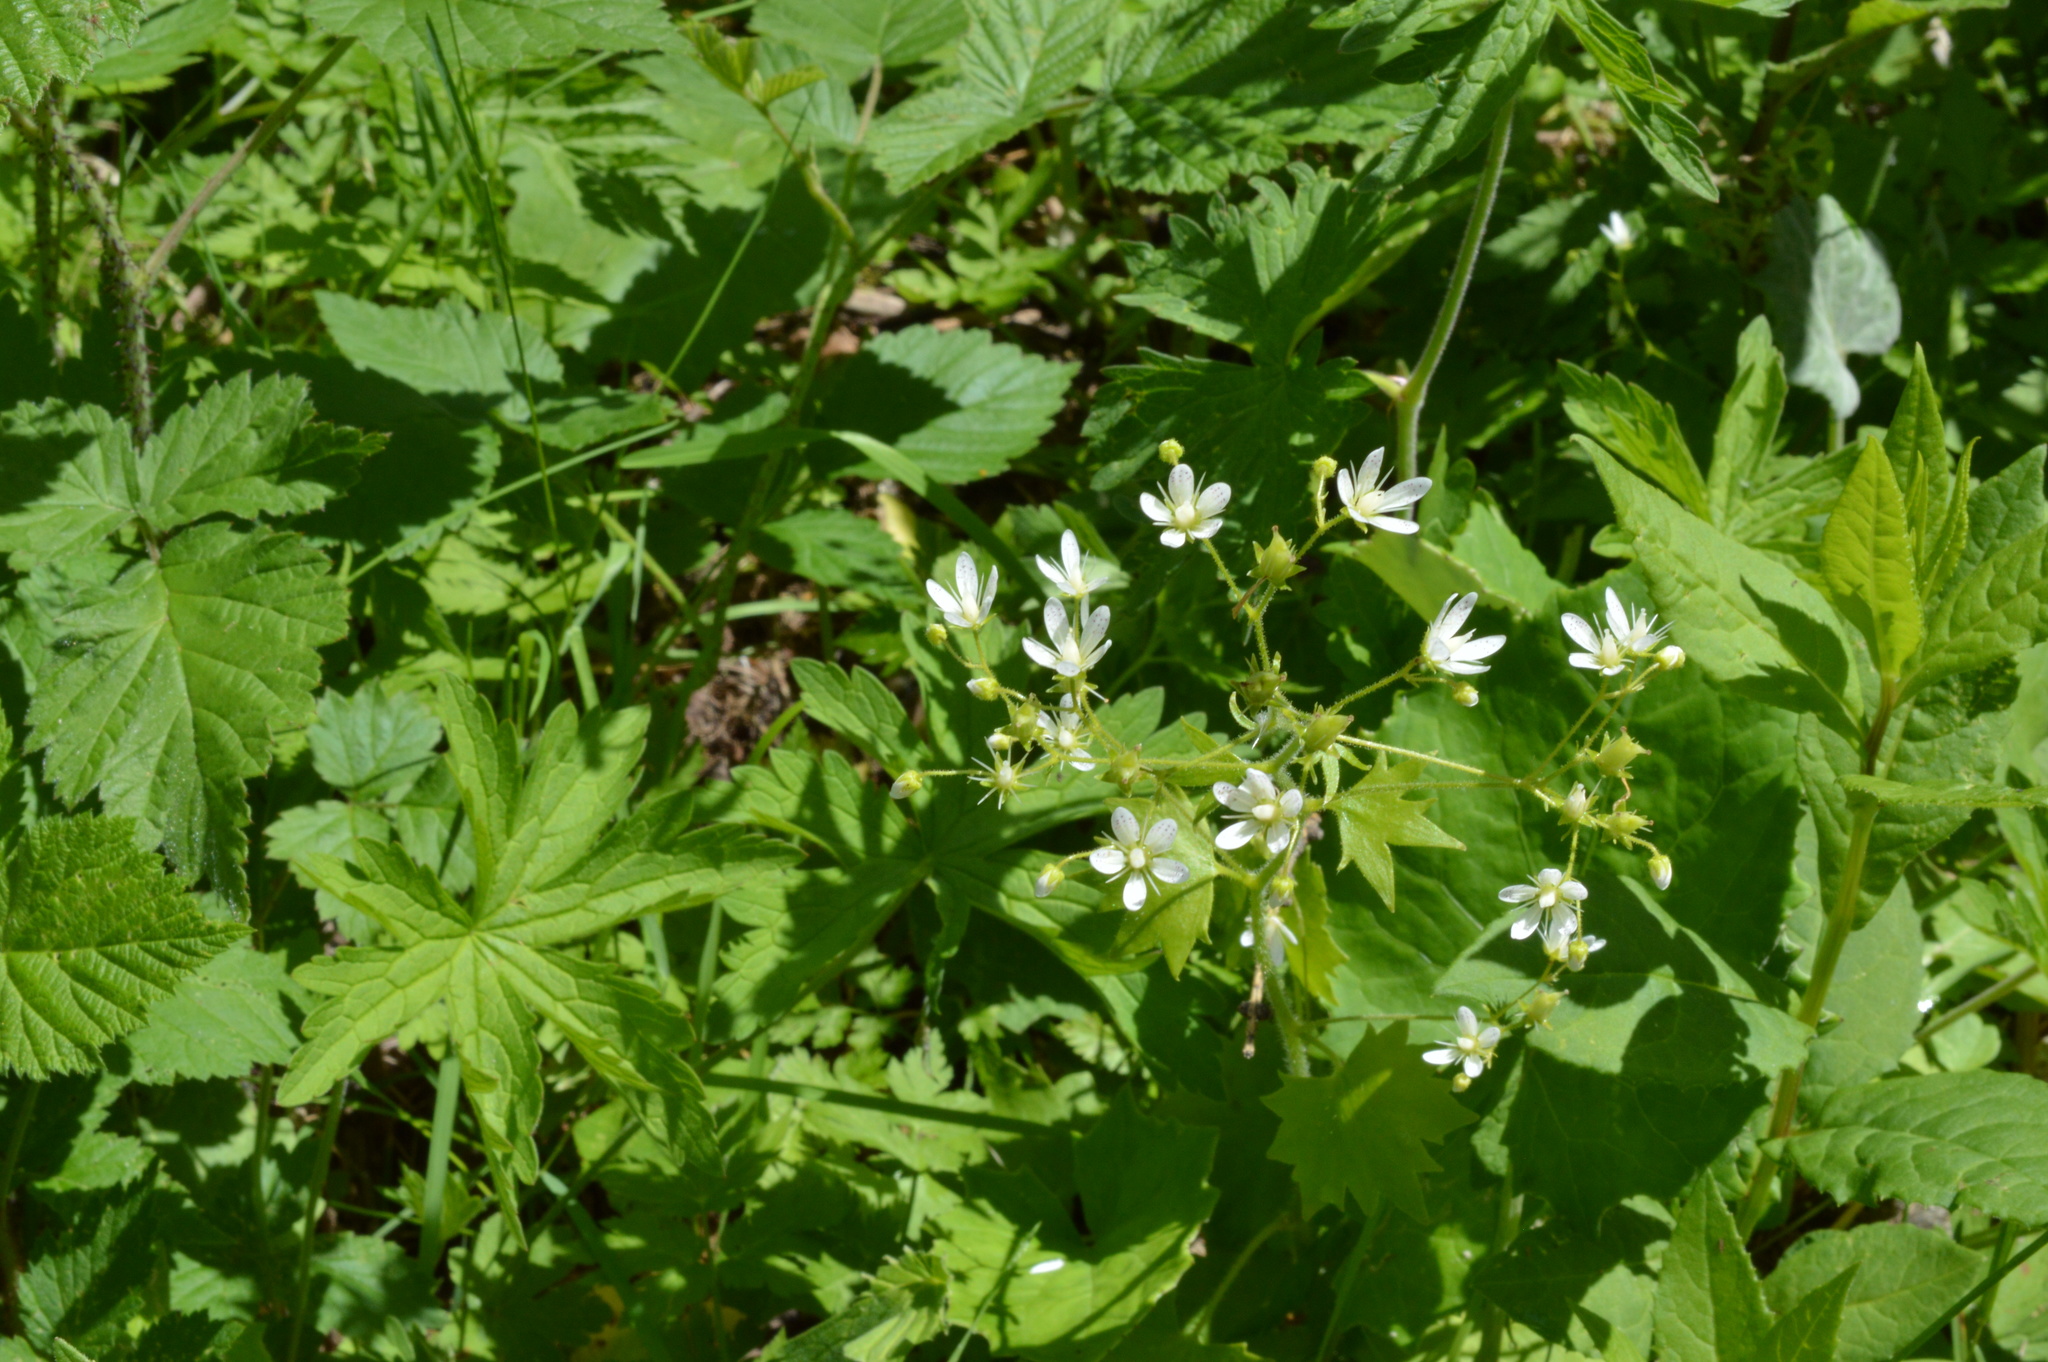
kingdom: Plantae
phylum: Tracheophyta
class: Magnoliopsida
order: Saxifragales
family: Saxifragaceae
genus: Saxifraga
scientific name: Saxifraga rotundifolia
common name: Round-leaved saxifrage
